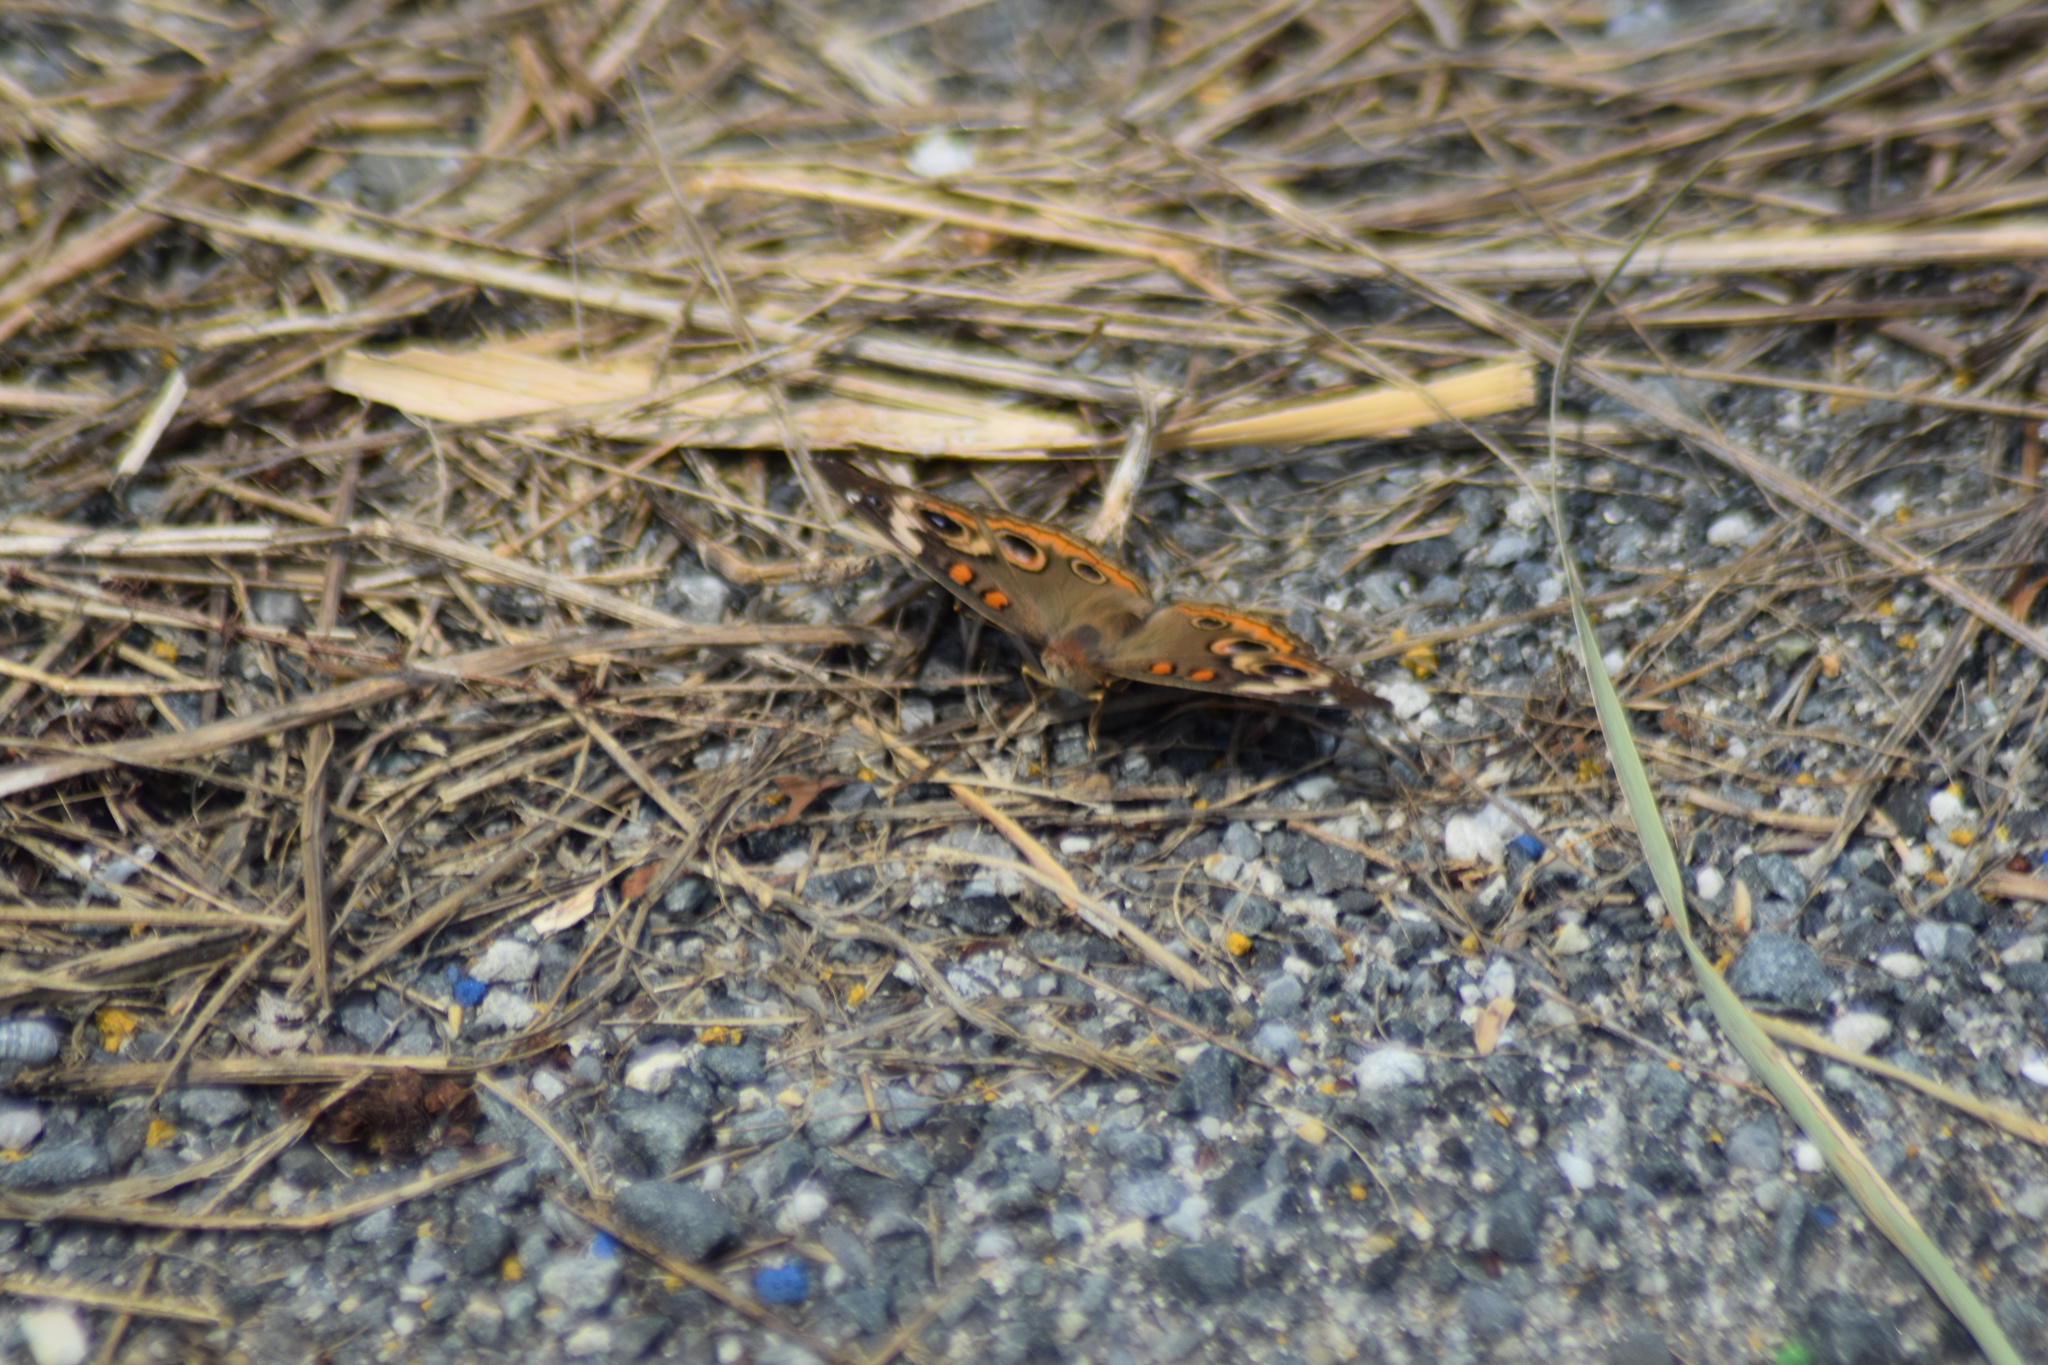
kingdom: Animalia
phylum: Arthropoda
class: Insecta
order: Lepidoptera
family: Nymphalidae
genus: Junonia
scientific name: Junonia coenia
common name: Common buckeye
